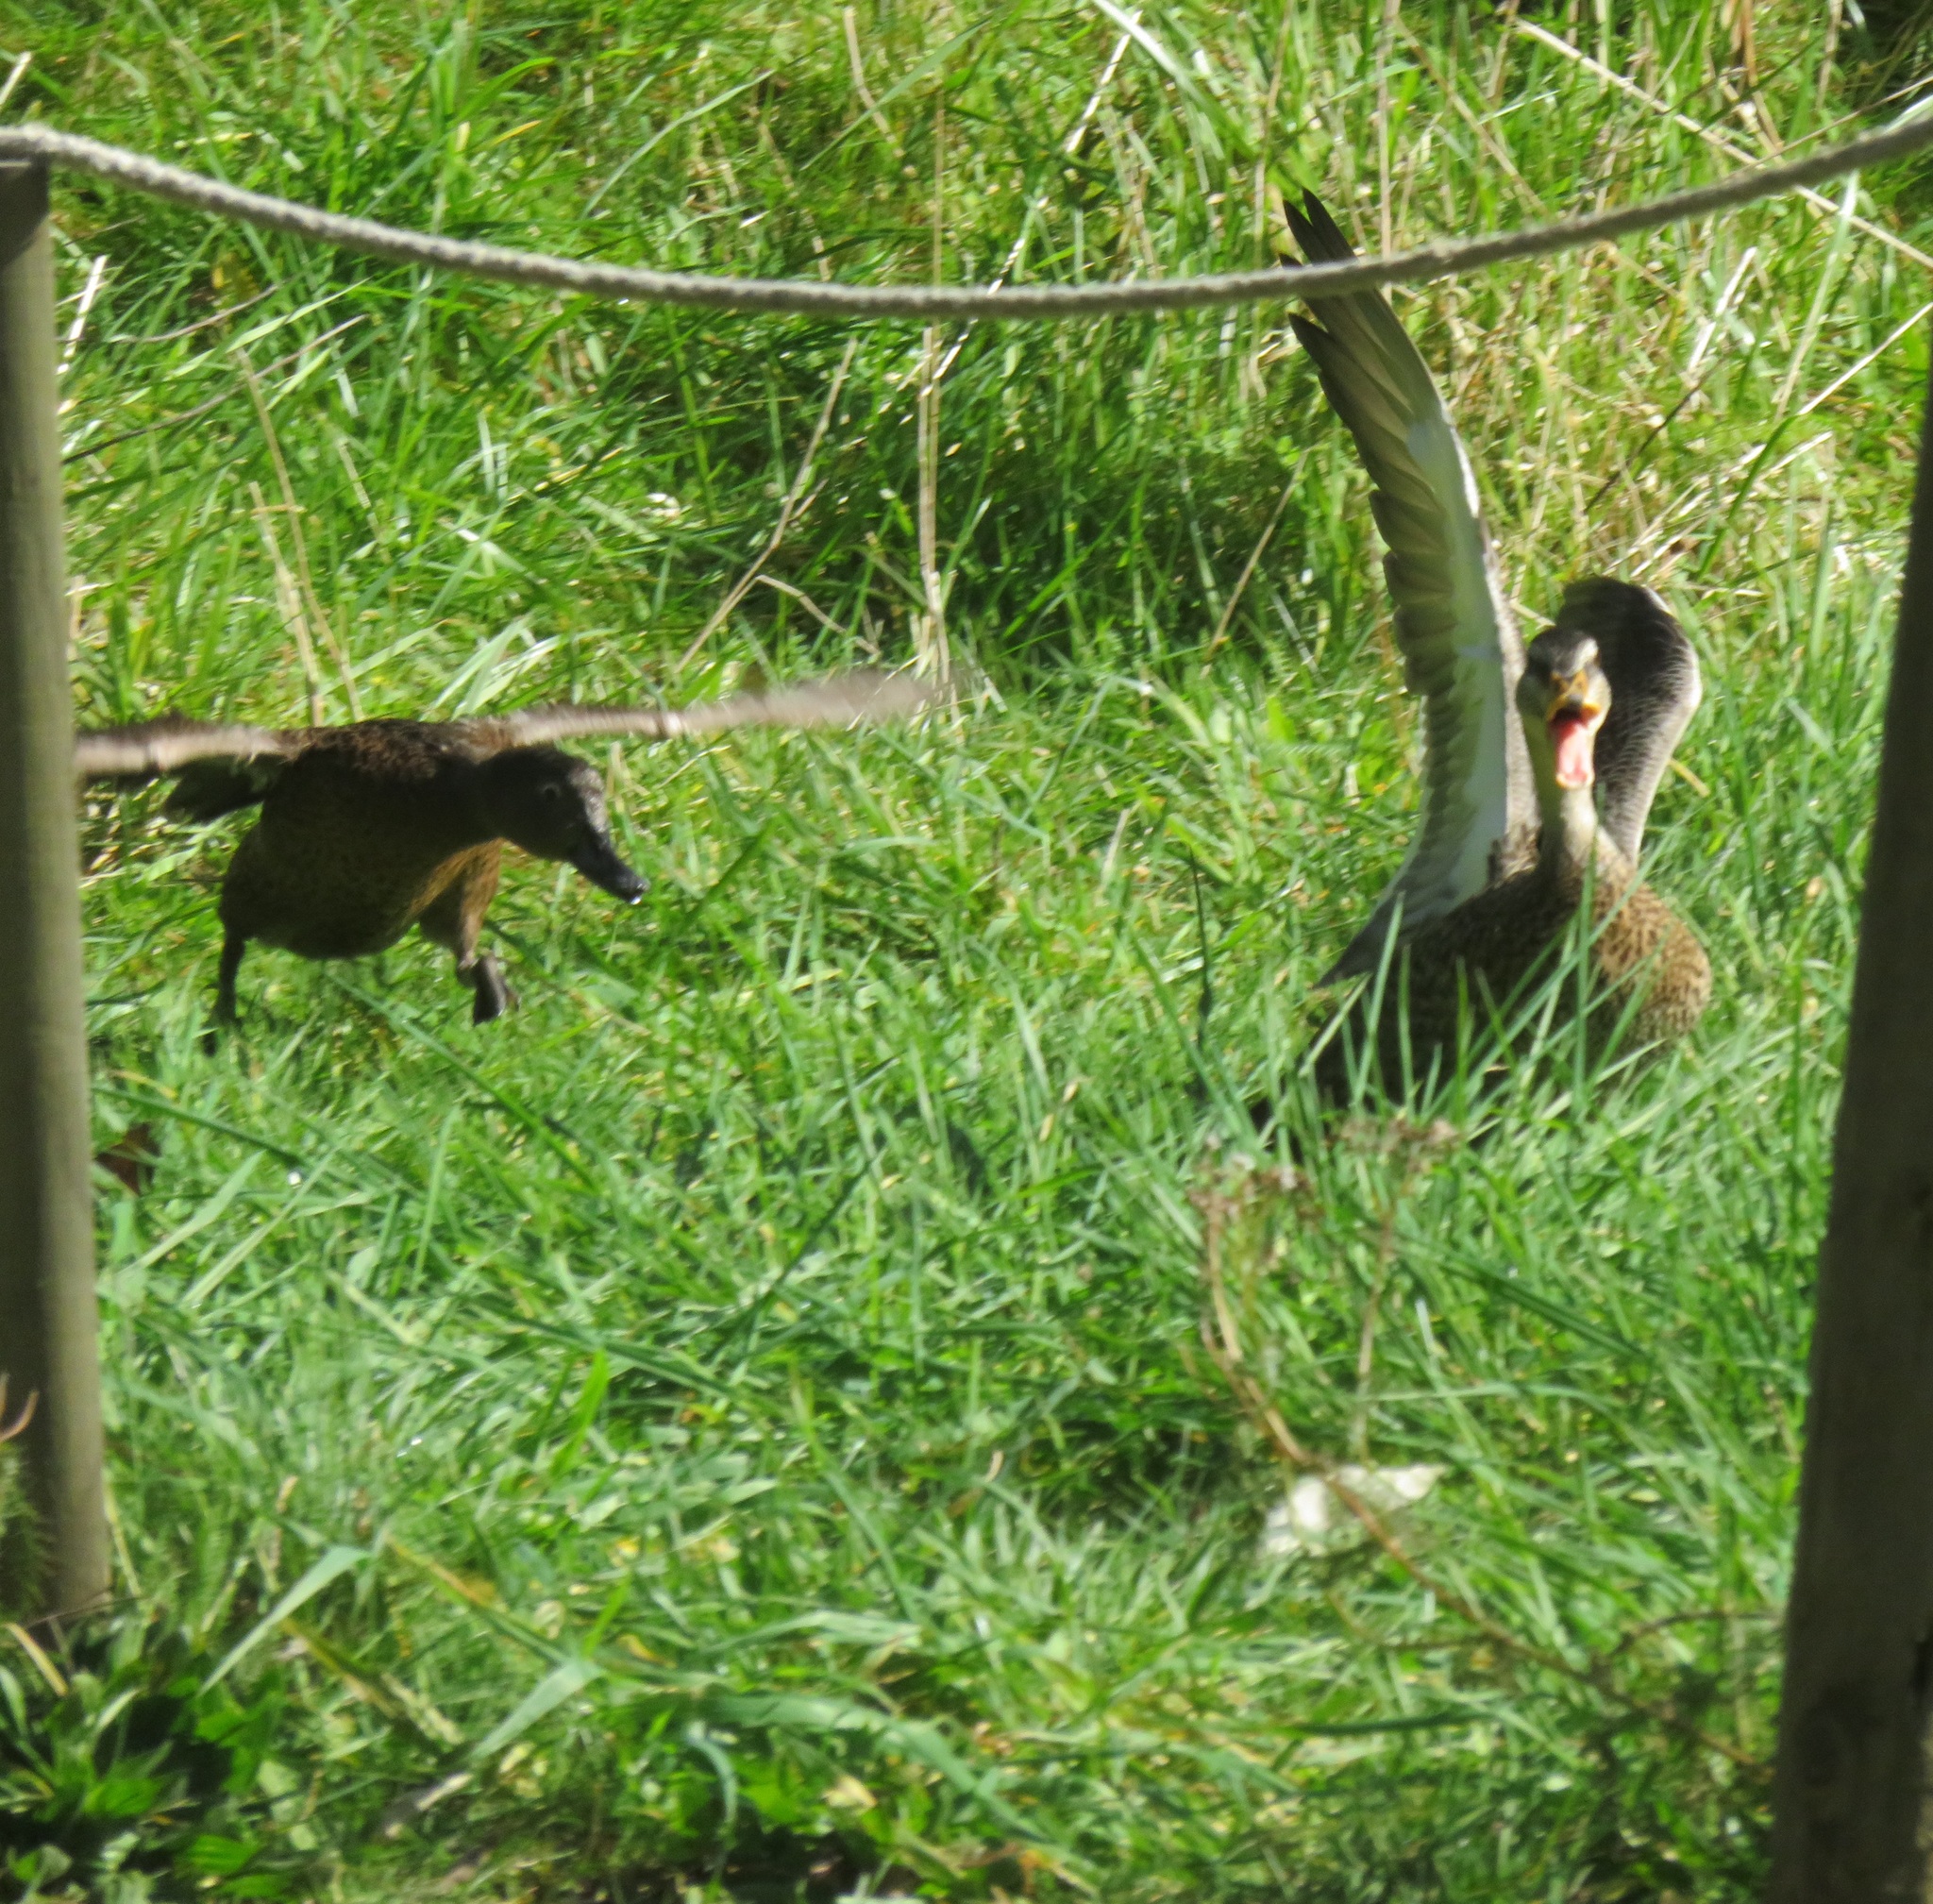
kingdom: Animalia
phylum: Chordata
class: Aves
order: Anseriformes
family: Anatidae
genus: Anas
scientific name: Anas chlorotis
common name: Brown teal
